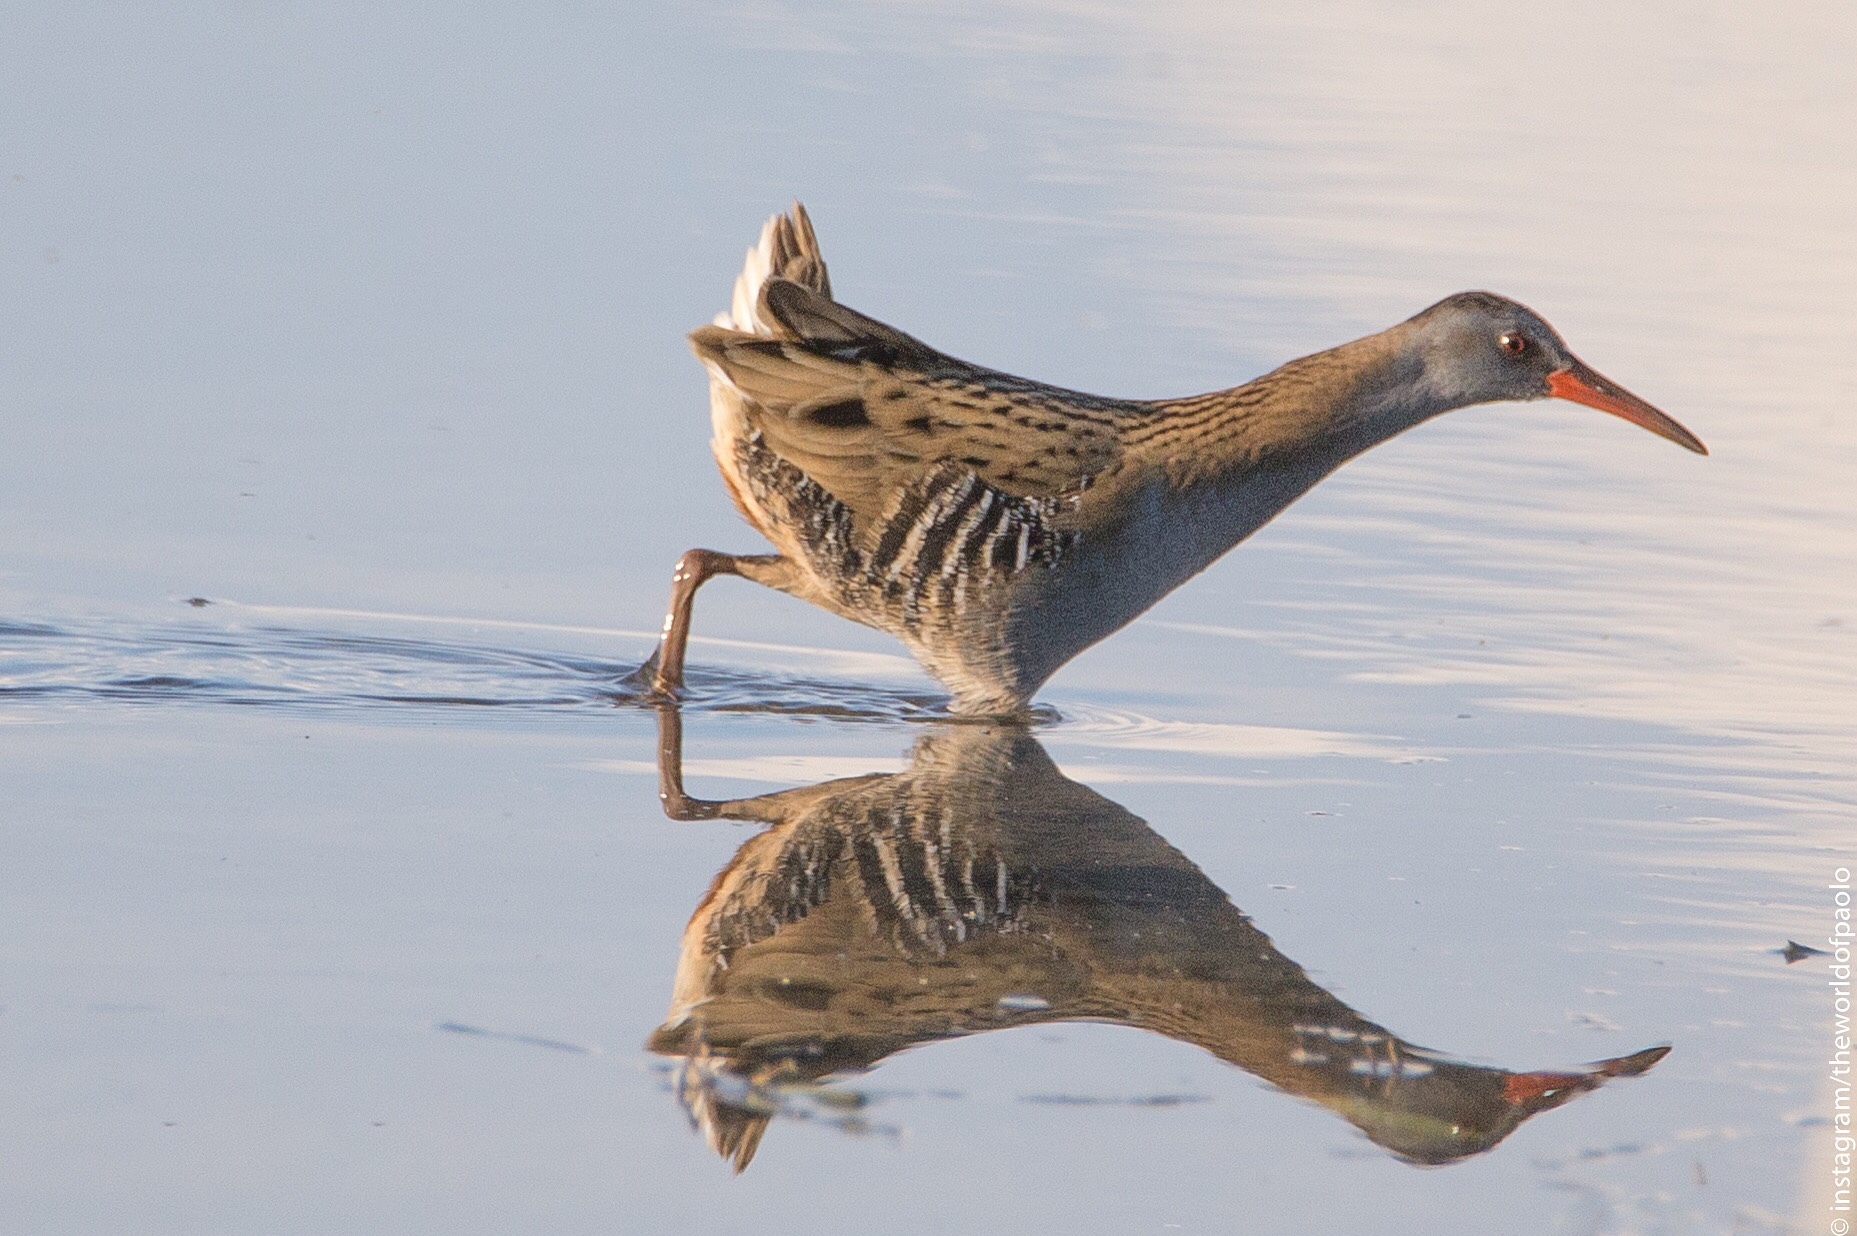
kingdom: Animalia
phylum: Chordata
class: Aves
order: Gruiformes
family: Rallidae
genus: Rallus
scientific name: Rallus aquaticus
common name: Water rail
